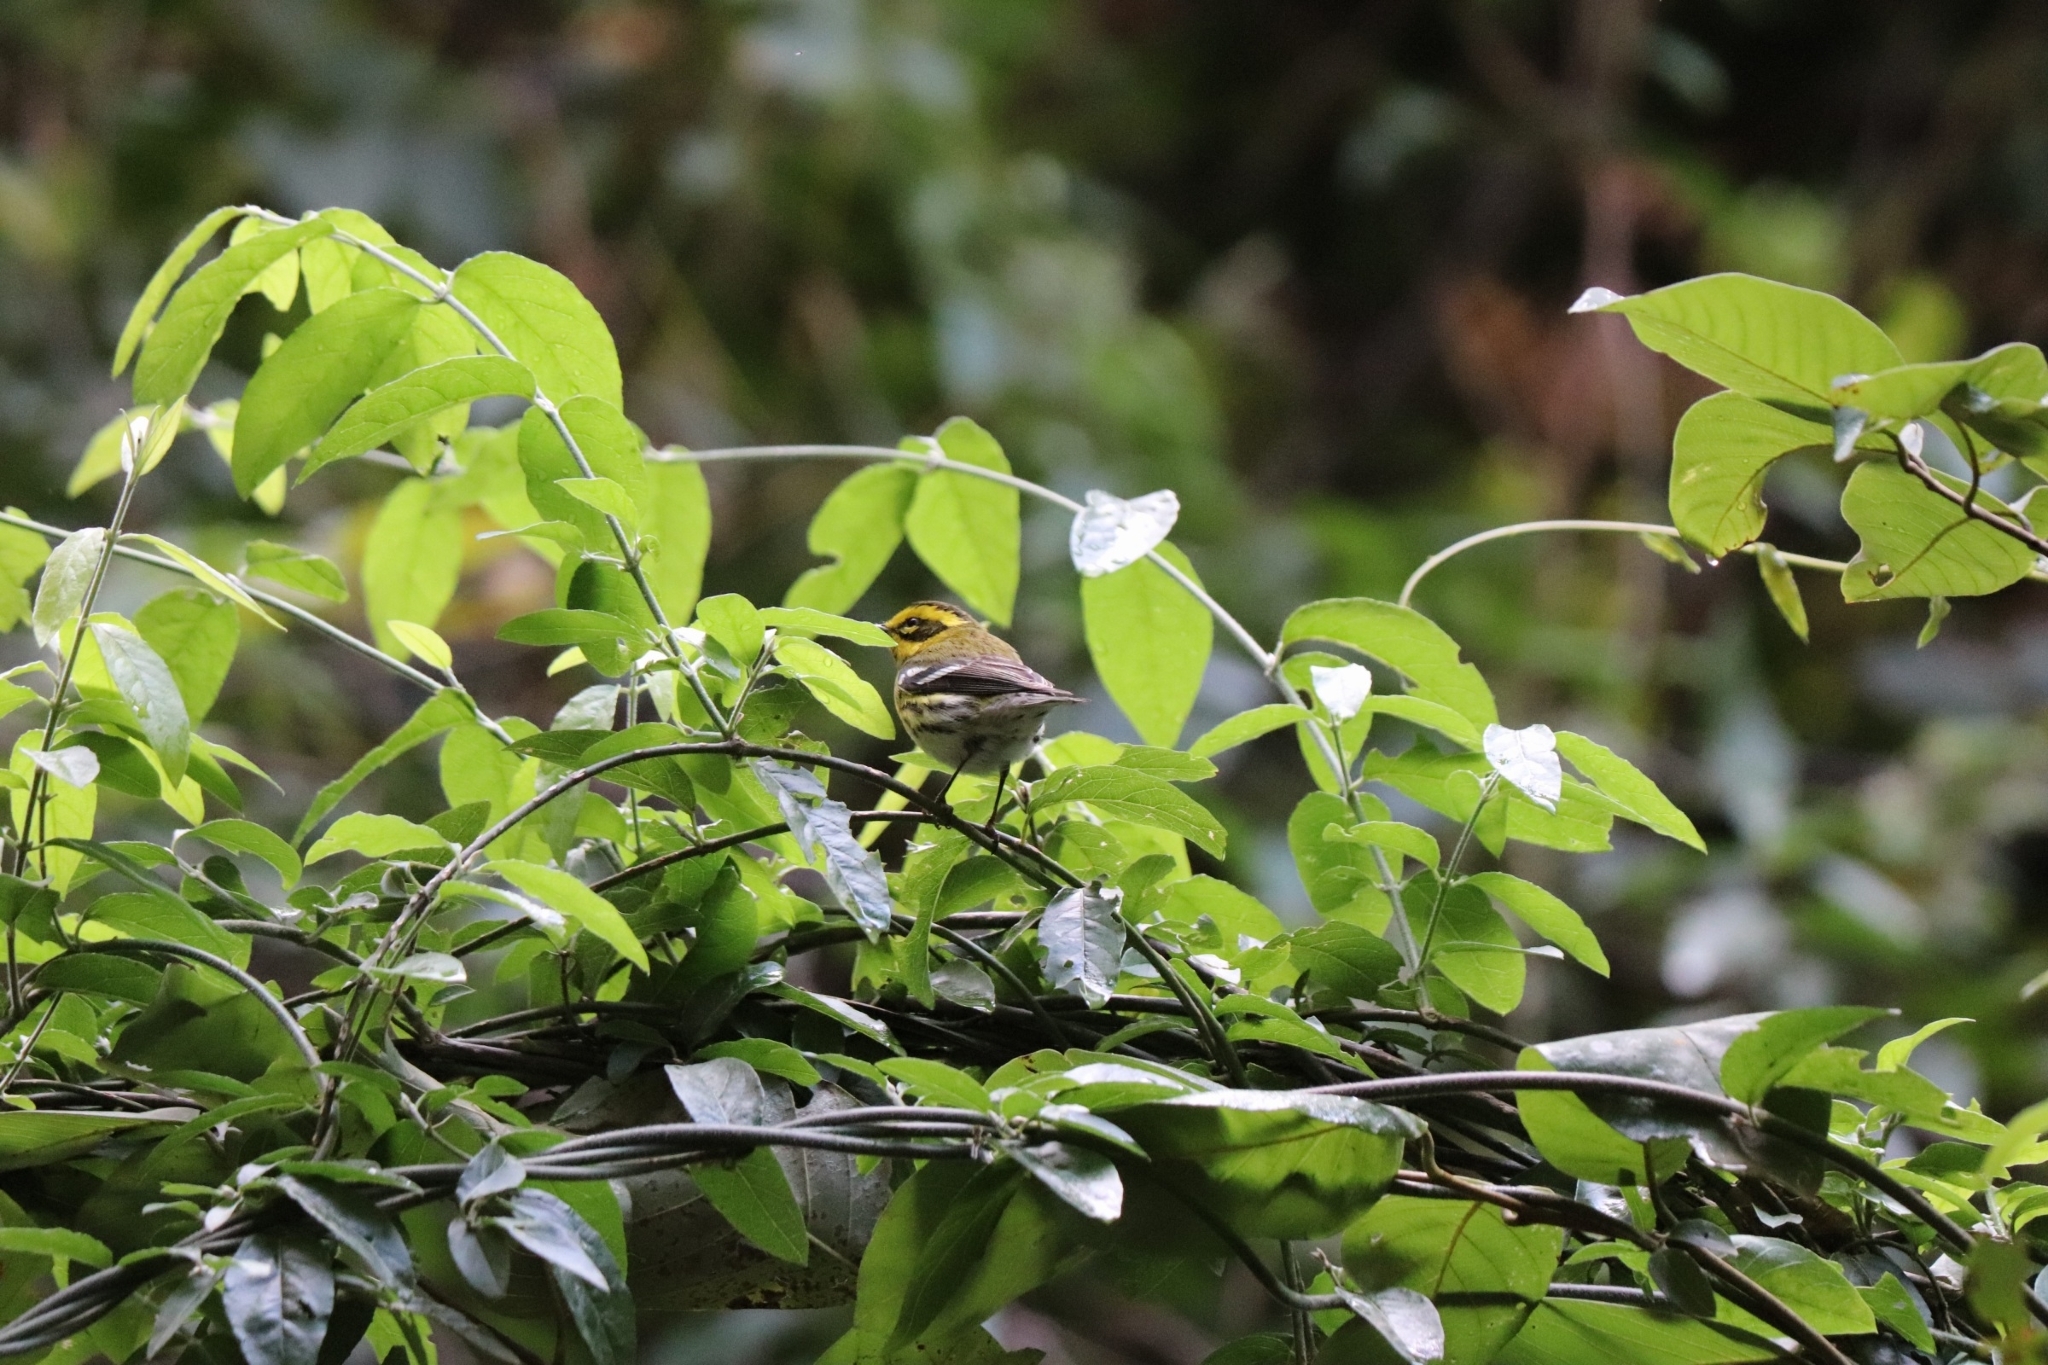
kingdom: Animalia
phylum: Chordata
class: Aves
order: Passeriformes
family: Parulidae
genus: Setophaga
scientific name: Setophaga townsendi
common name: Townsend's warbler
